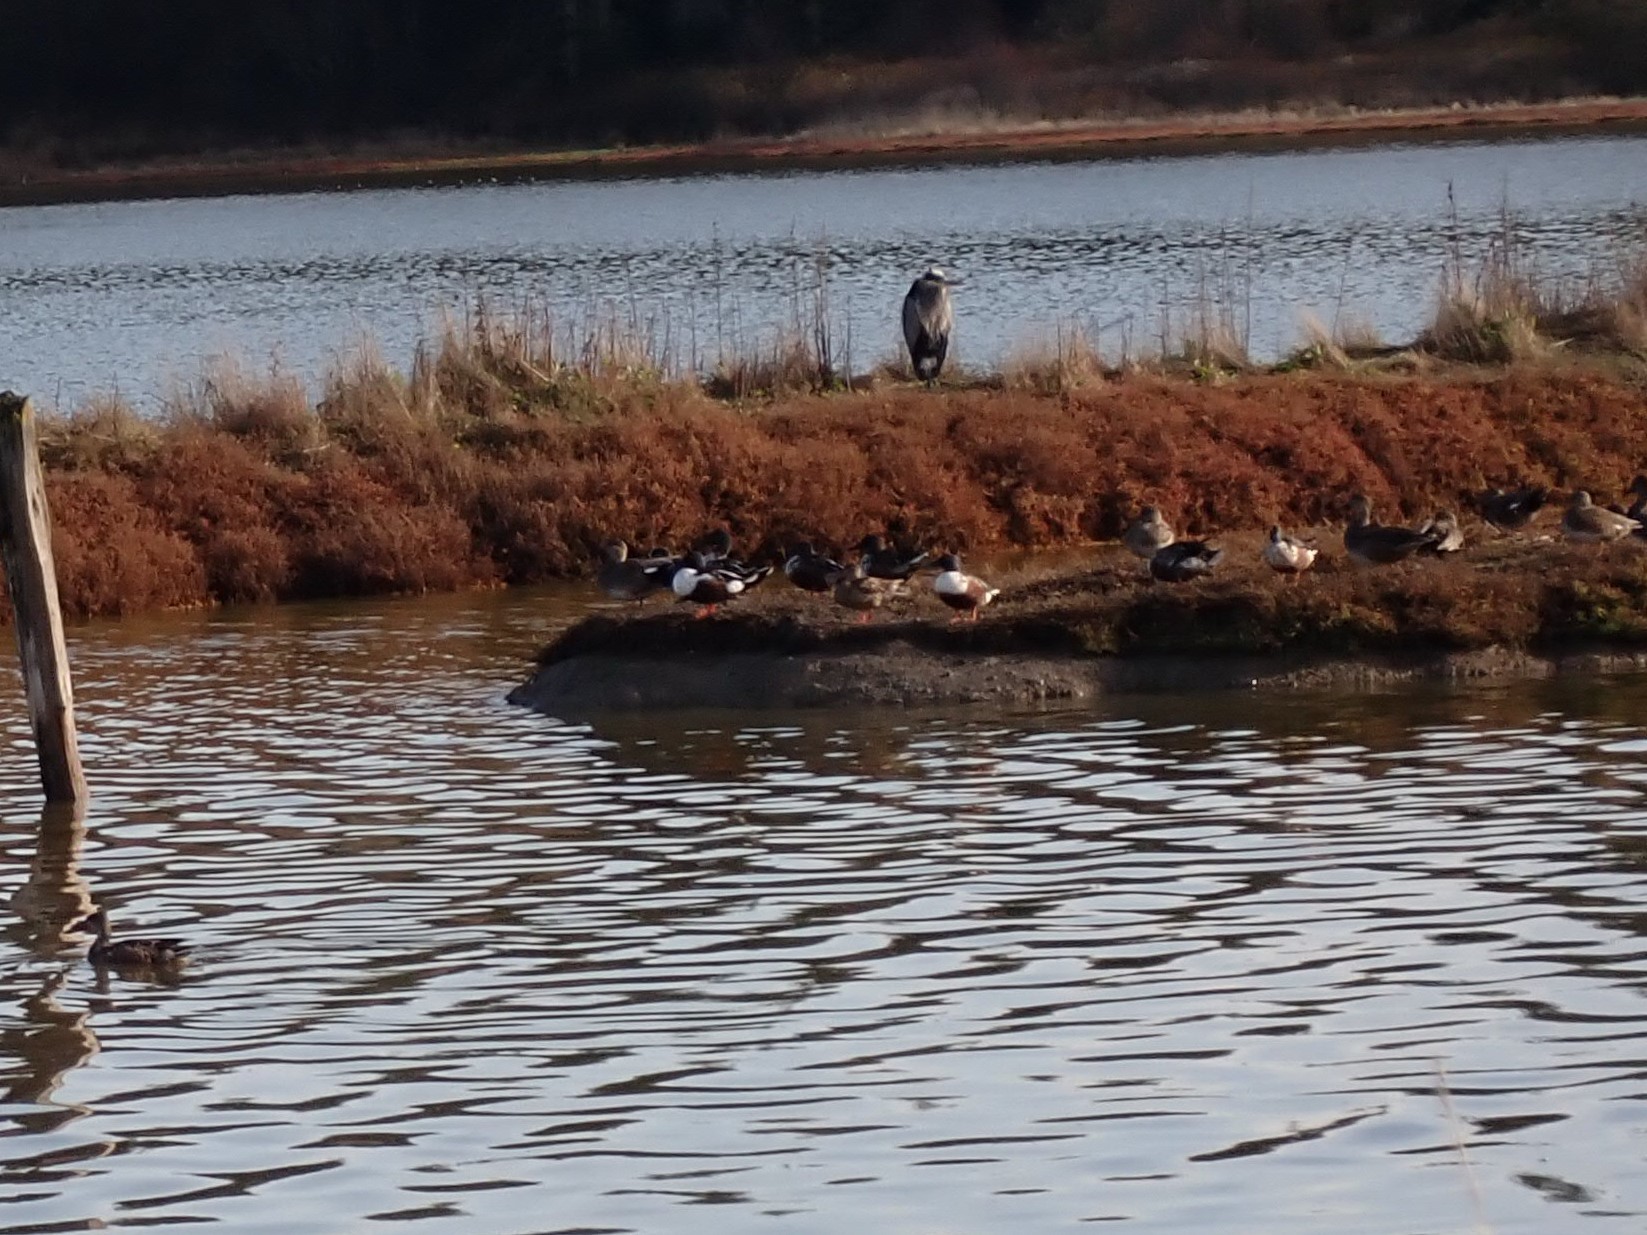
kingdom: Animalia
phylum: Chordata
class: Aves
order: Anseriformes
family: Anatidae
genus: Mareca
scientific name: Mareca strepera
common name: Gadwall
